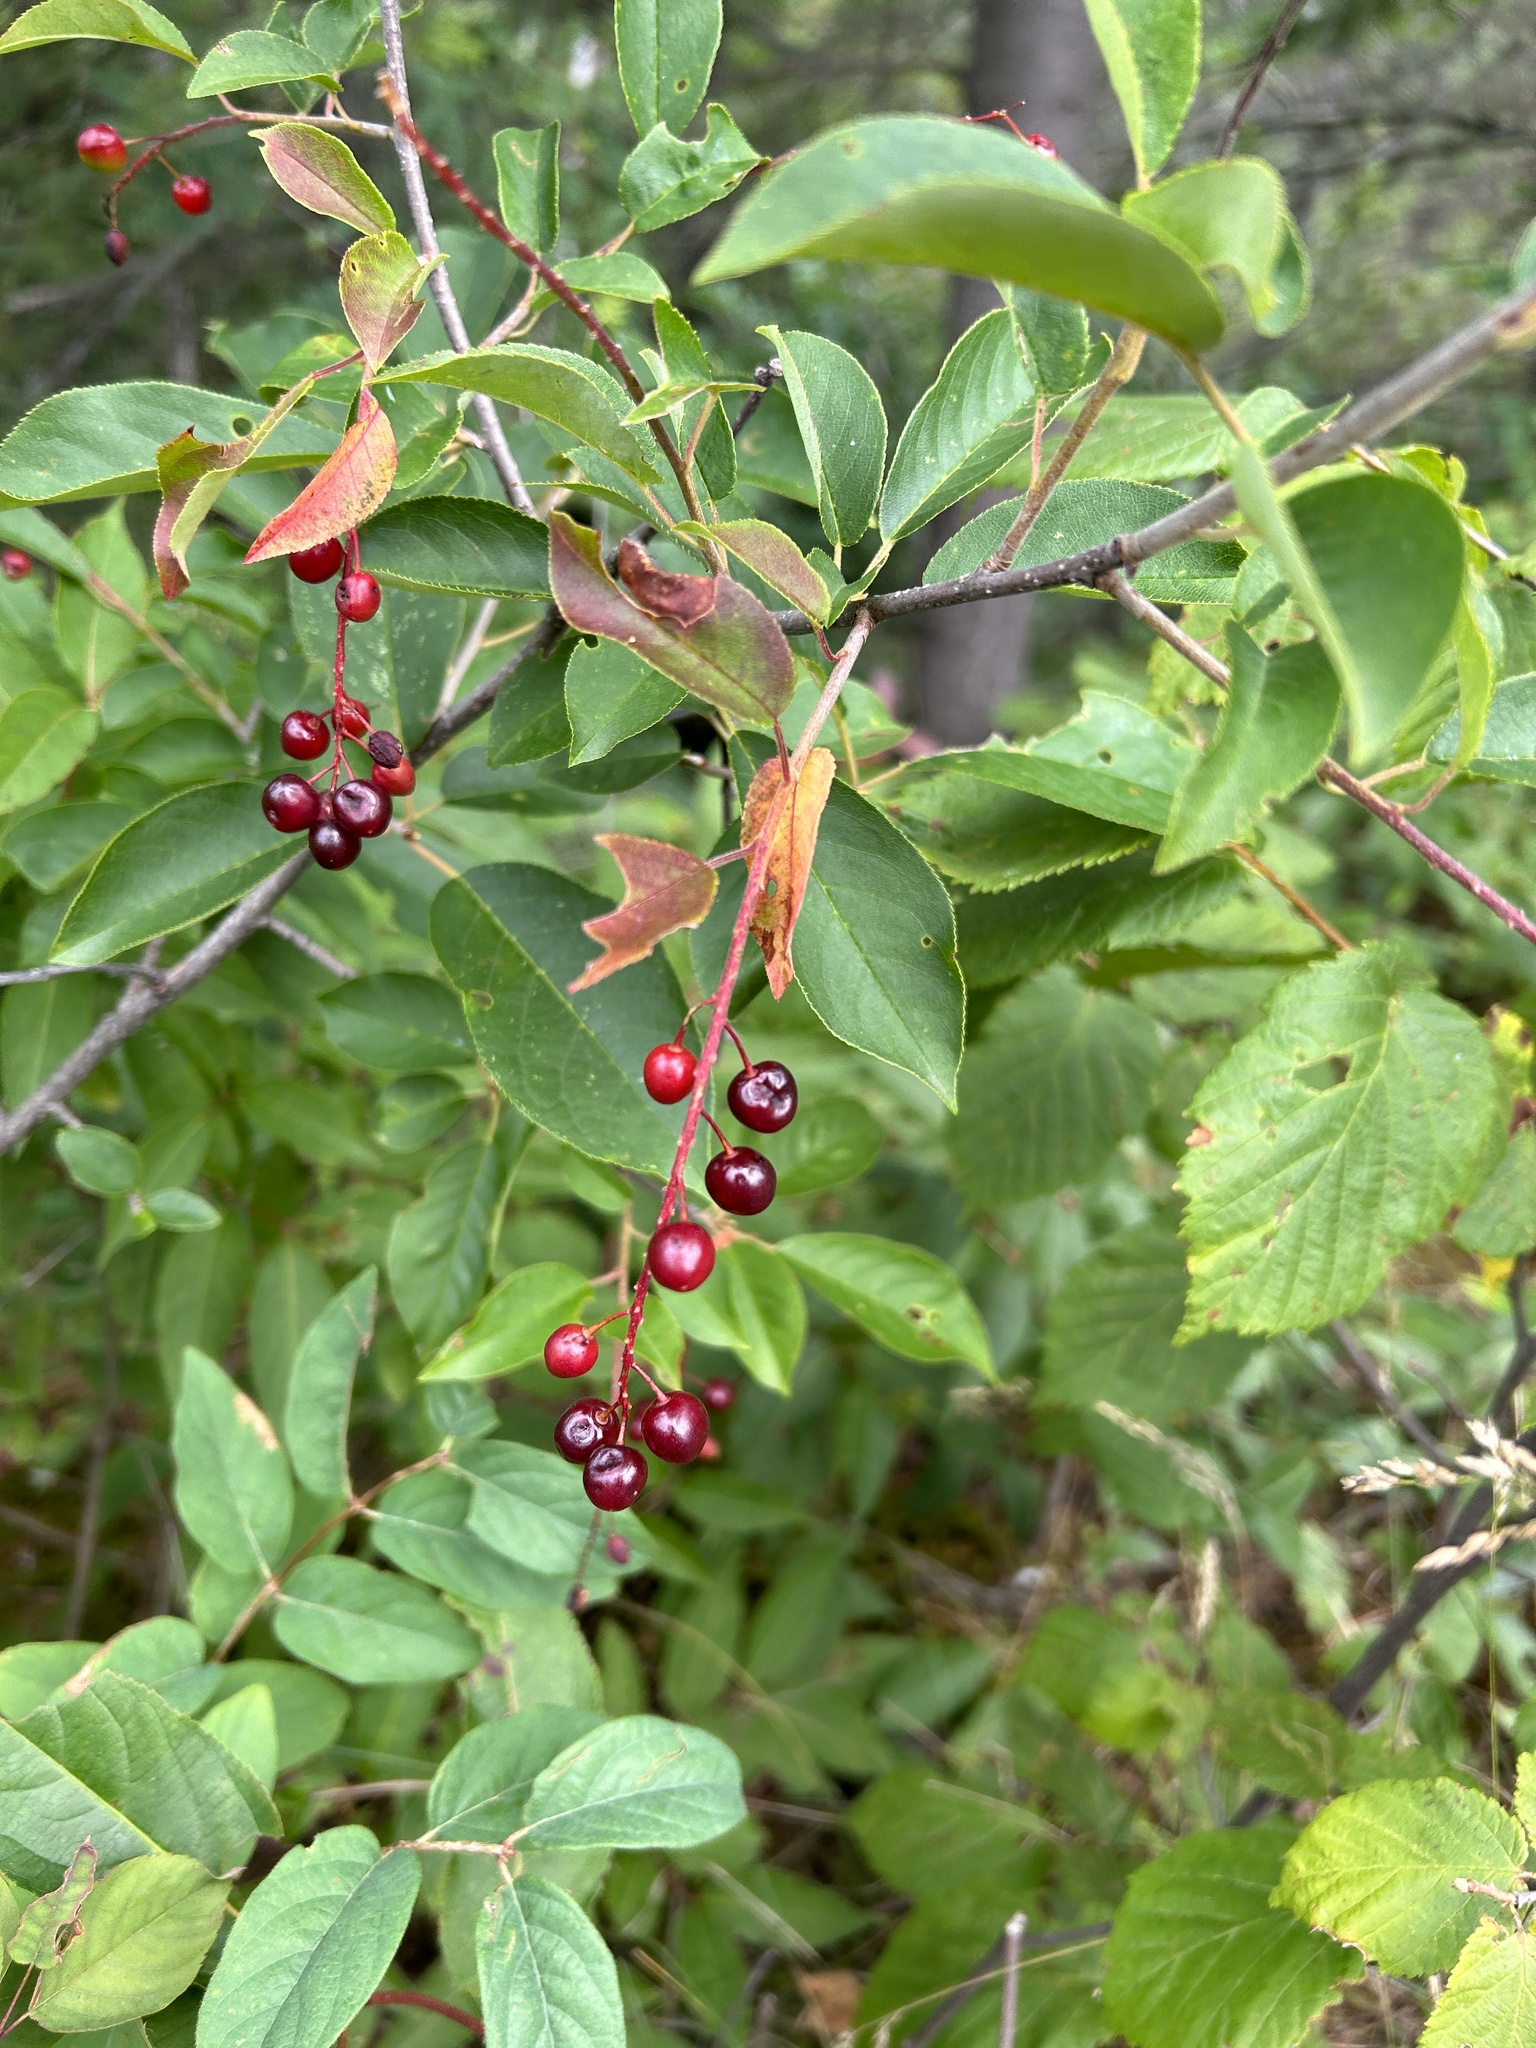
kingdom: Plantae
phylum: Tracheophyta
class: Magnoliopsida
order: Rosales
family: Rosaceae
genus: Prunus
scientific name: Prunus virginiana
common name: Chokecherry
